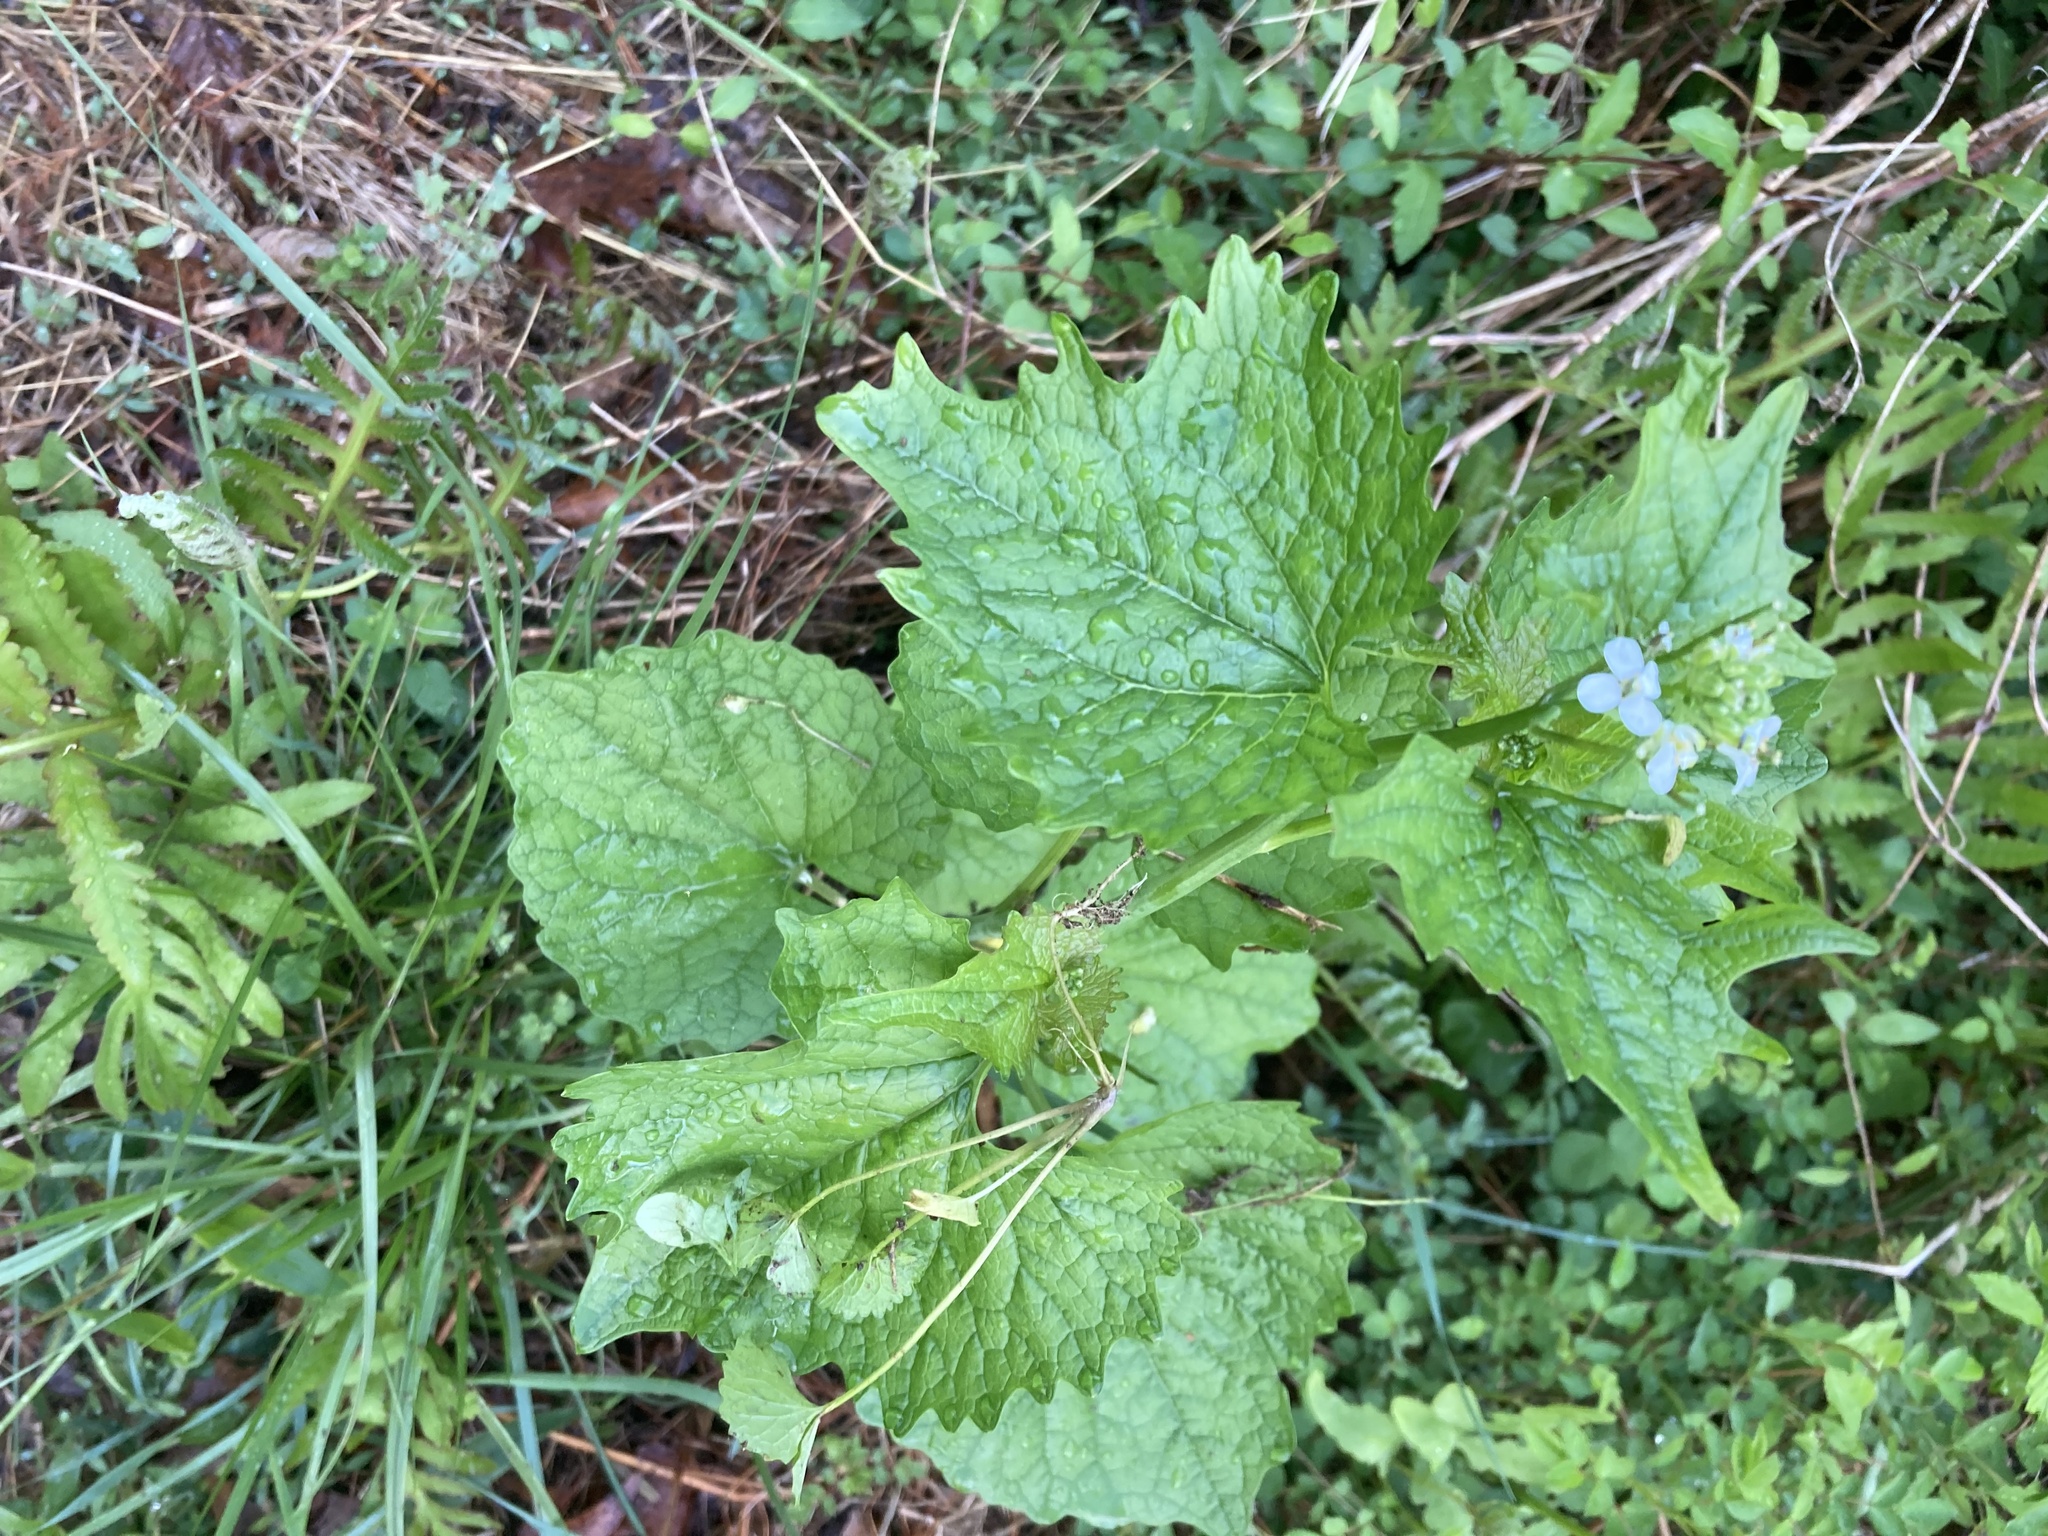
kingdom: Plantae
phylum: Tracheophyta
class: Magnoliopsida
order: Brassicales
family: Brassicaceae
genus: Alliaria
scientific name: Alliaria petiolata
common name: Garlic mustard
